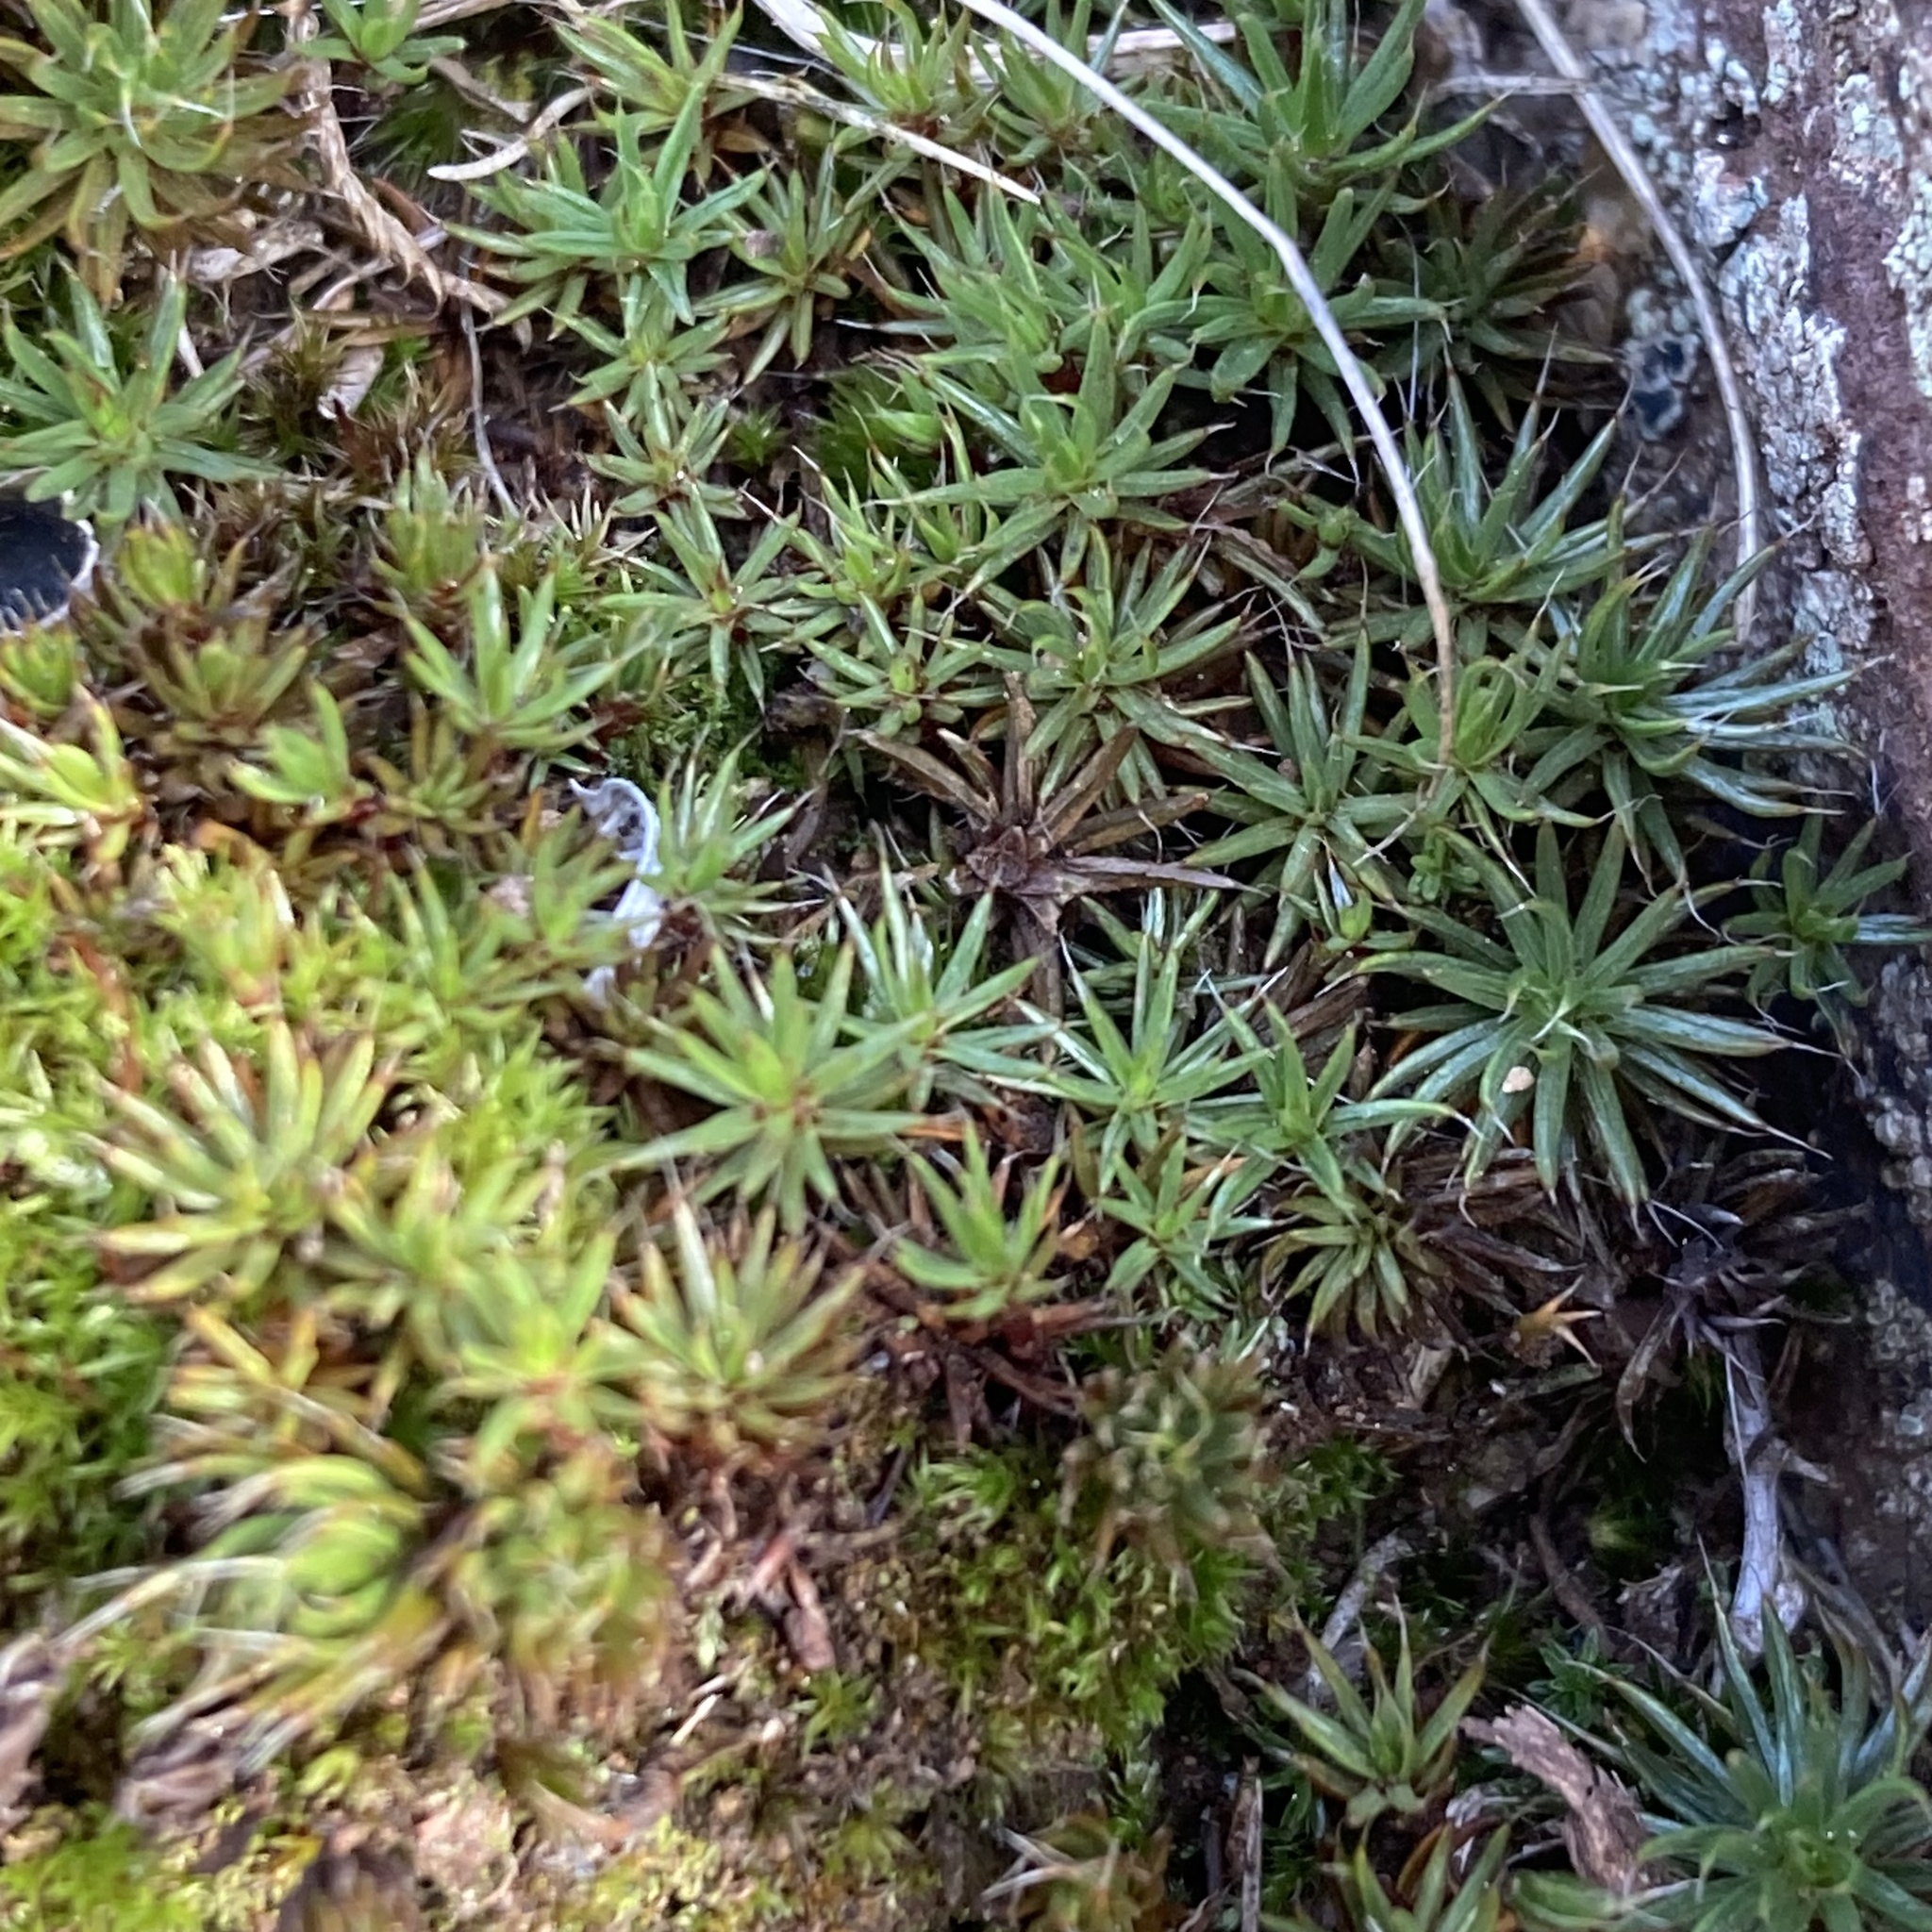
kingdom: Plantae
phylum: Bryophyta
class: Polytrichopsida
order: Polytrichales
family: Polytrichaceae
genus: Polytrichum
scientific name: Polytrichum piliferum
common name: Bristly haircap
